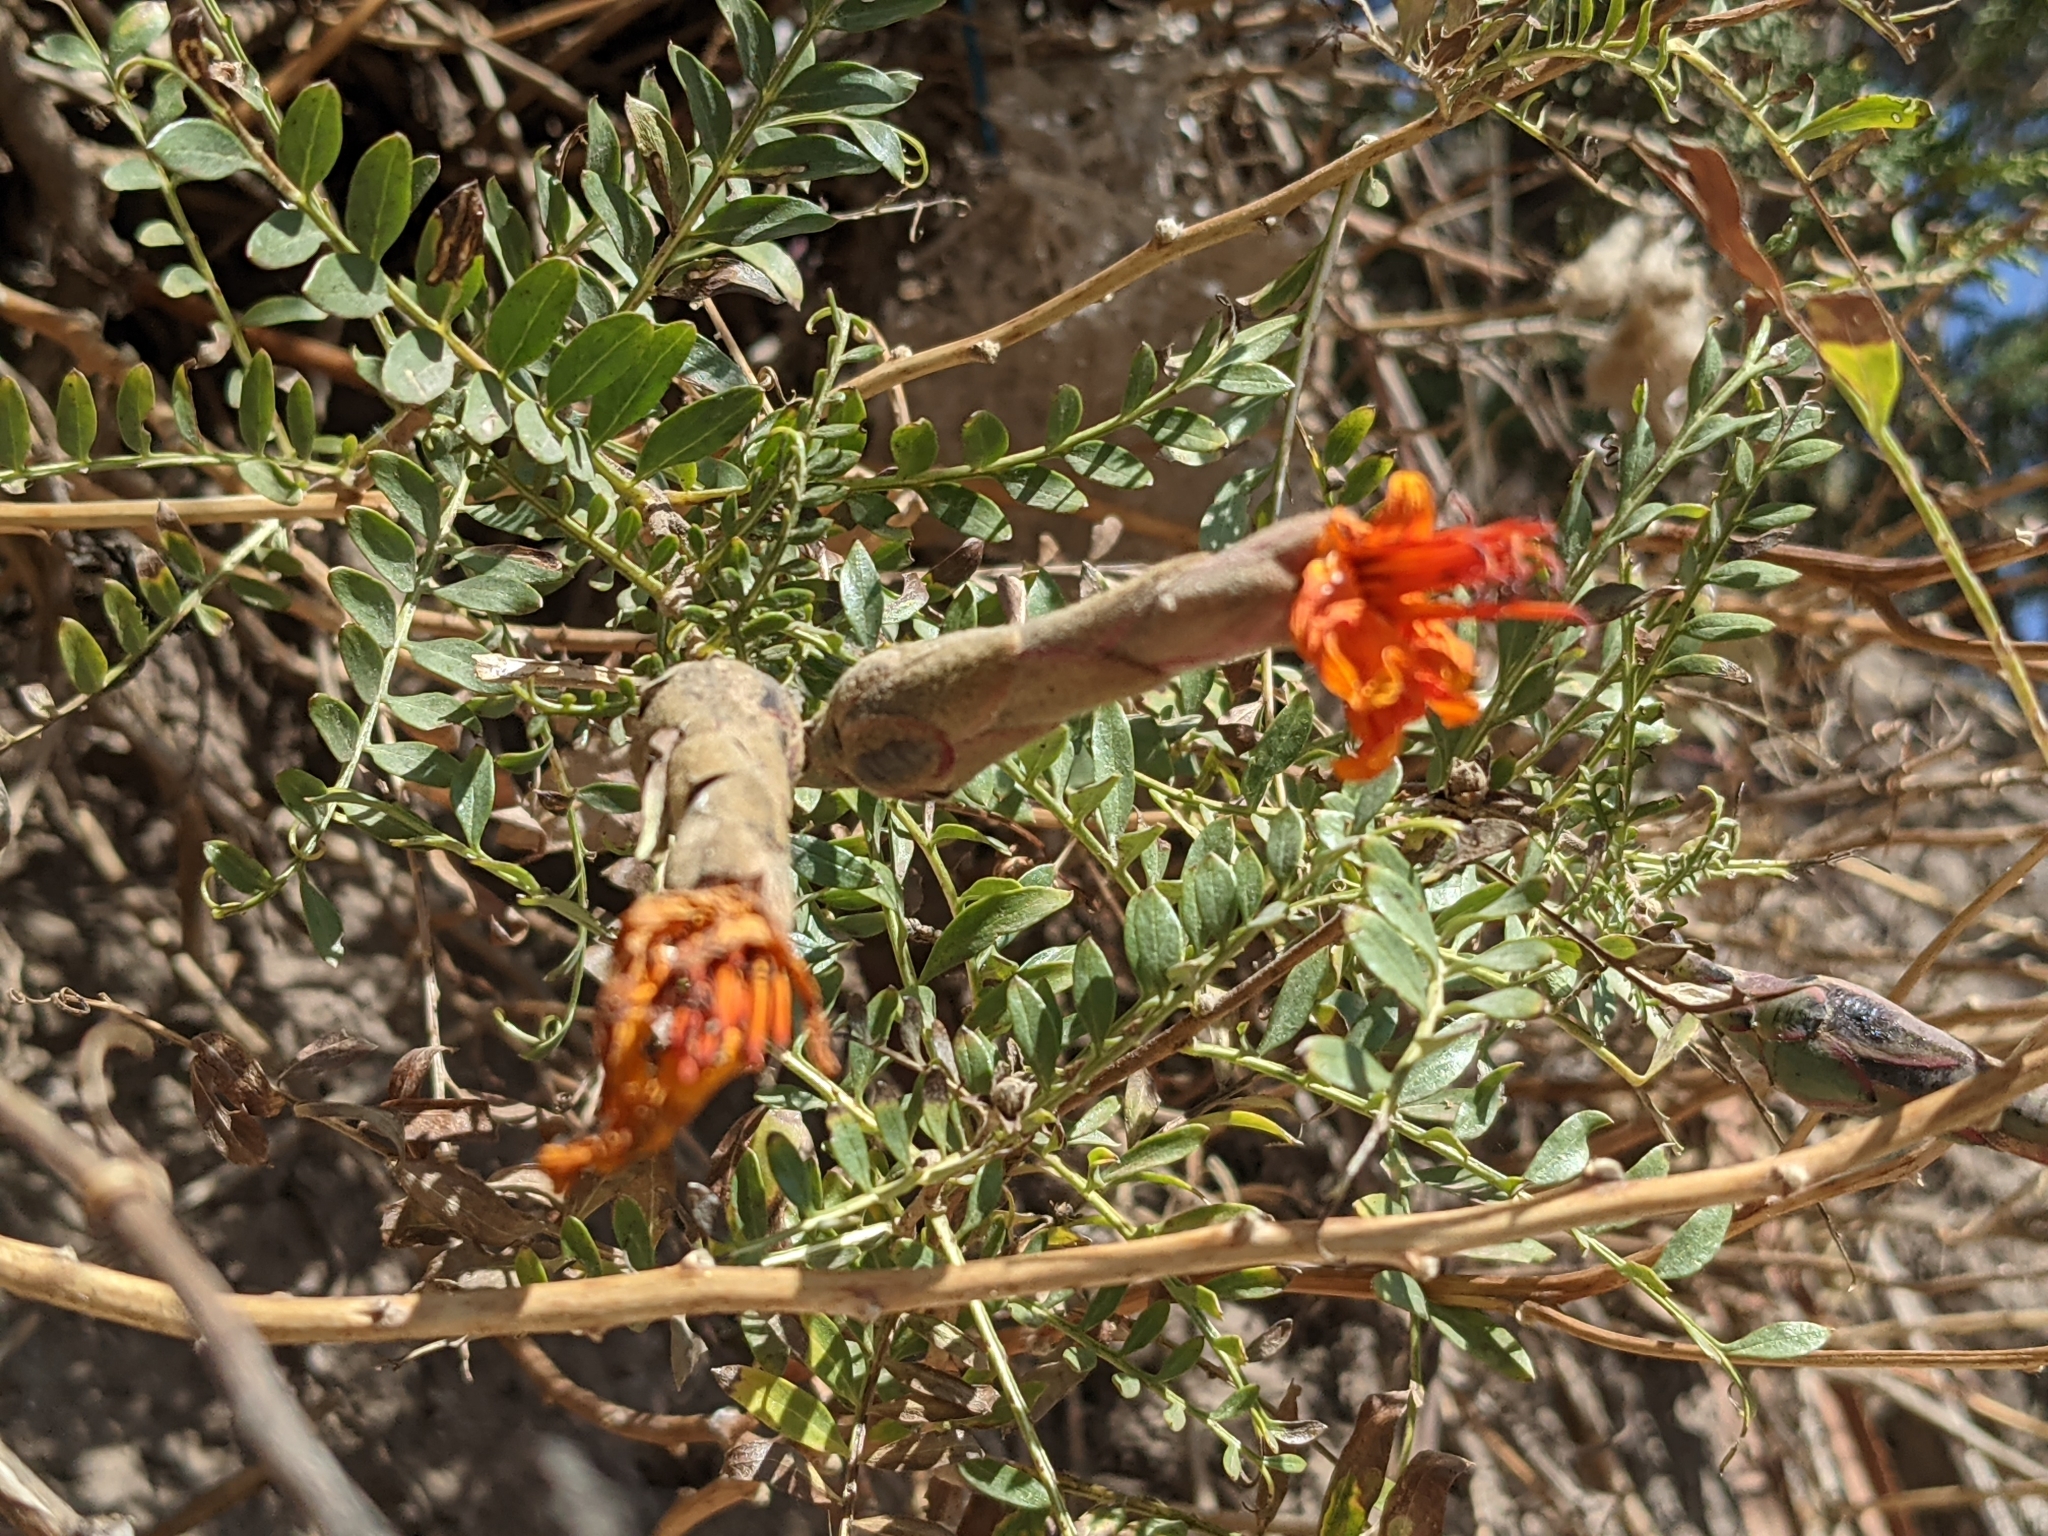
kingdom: Plantae
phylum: Tracheophyta
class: Magnoliopsida
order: Asterales
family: Asteraceae
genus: Mutisia
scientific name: Mutisia acuminata
